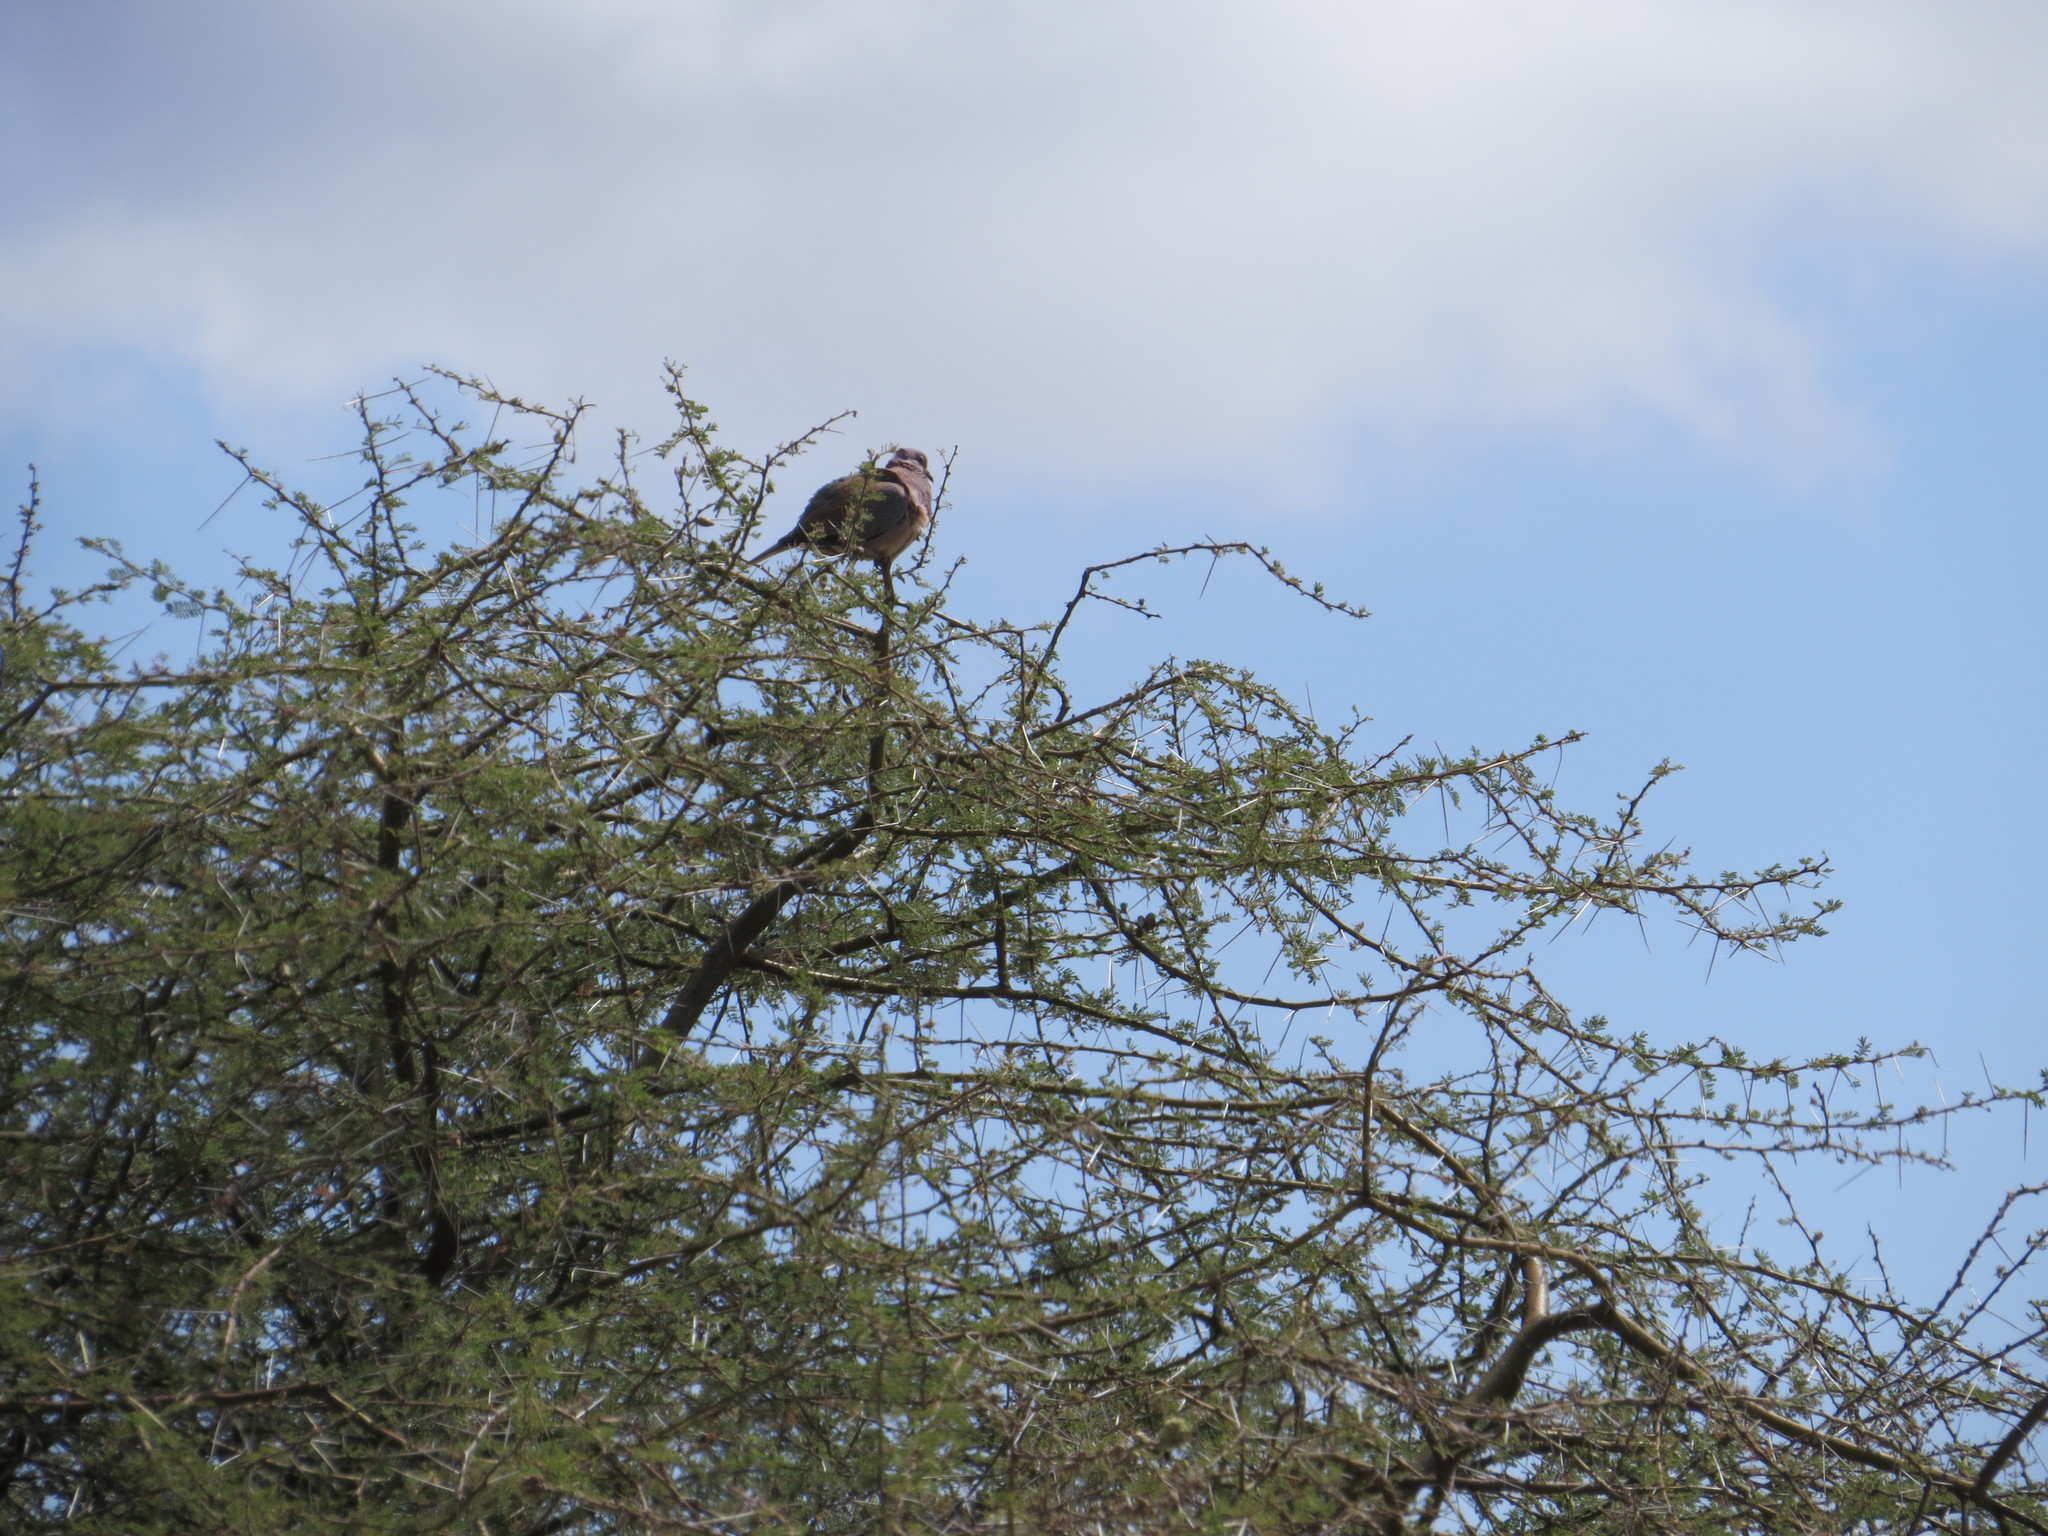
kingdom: Animalia
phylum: Chordata
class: Aves
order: Columbiformes
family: Columbidae
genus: Streptopelia
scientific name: Streptopelia semitorquata
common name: Red-eyed dove
